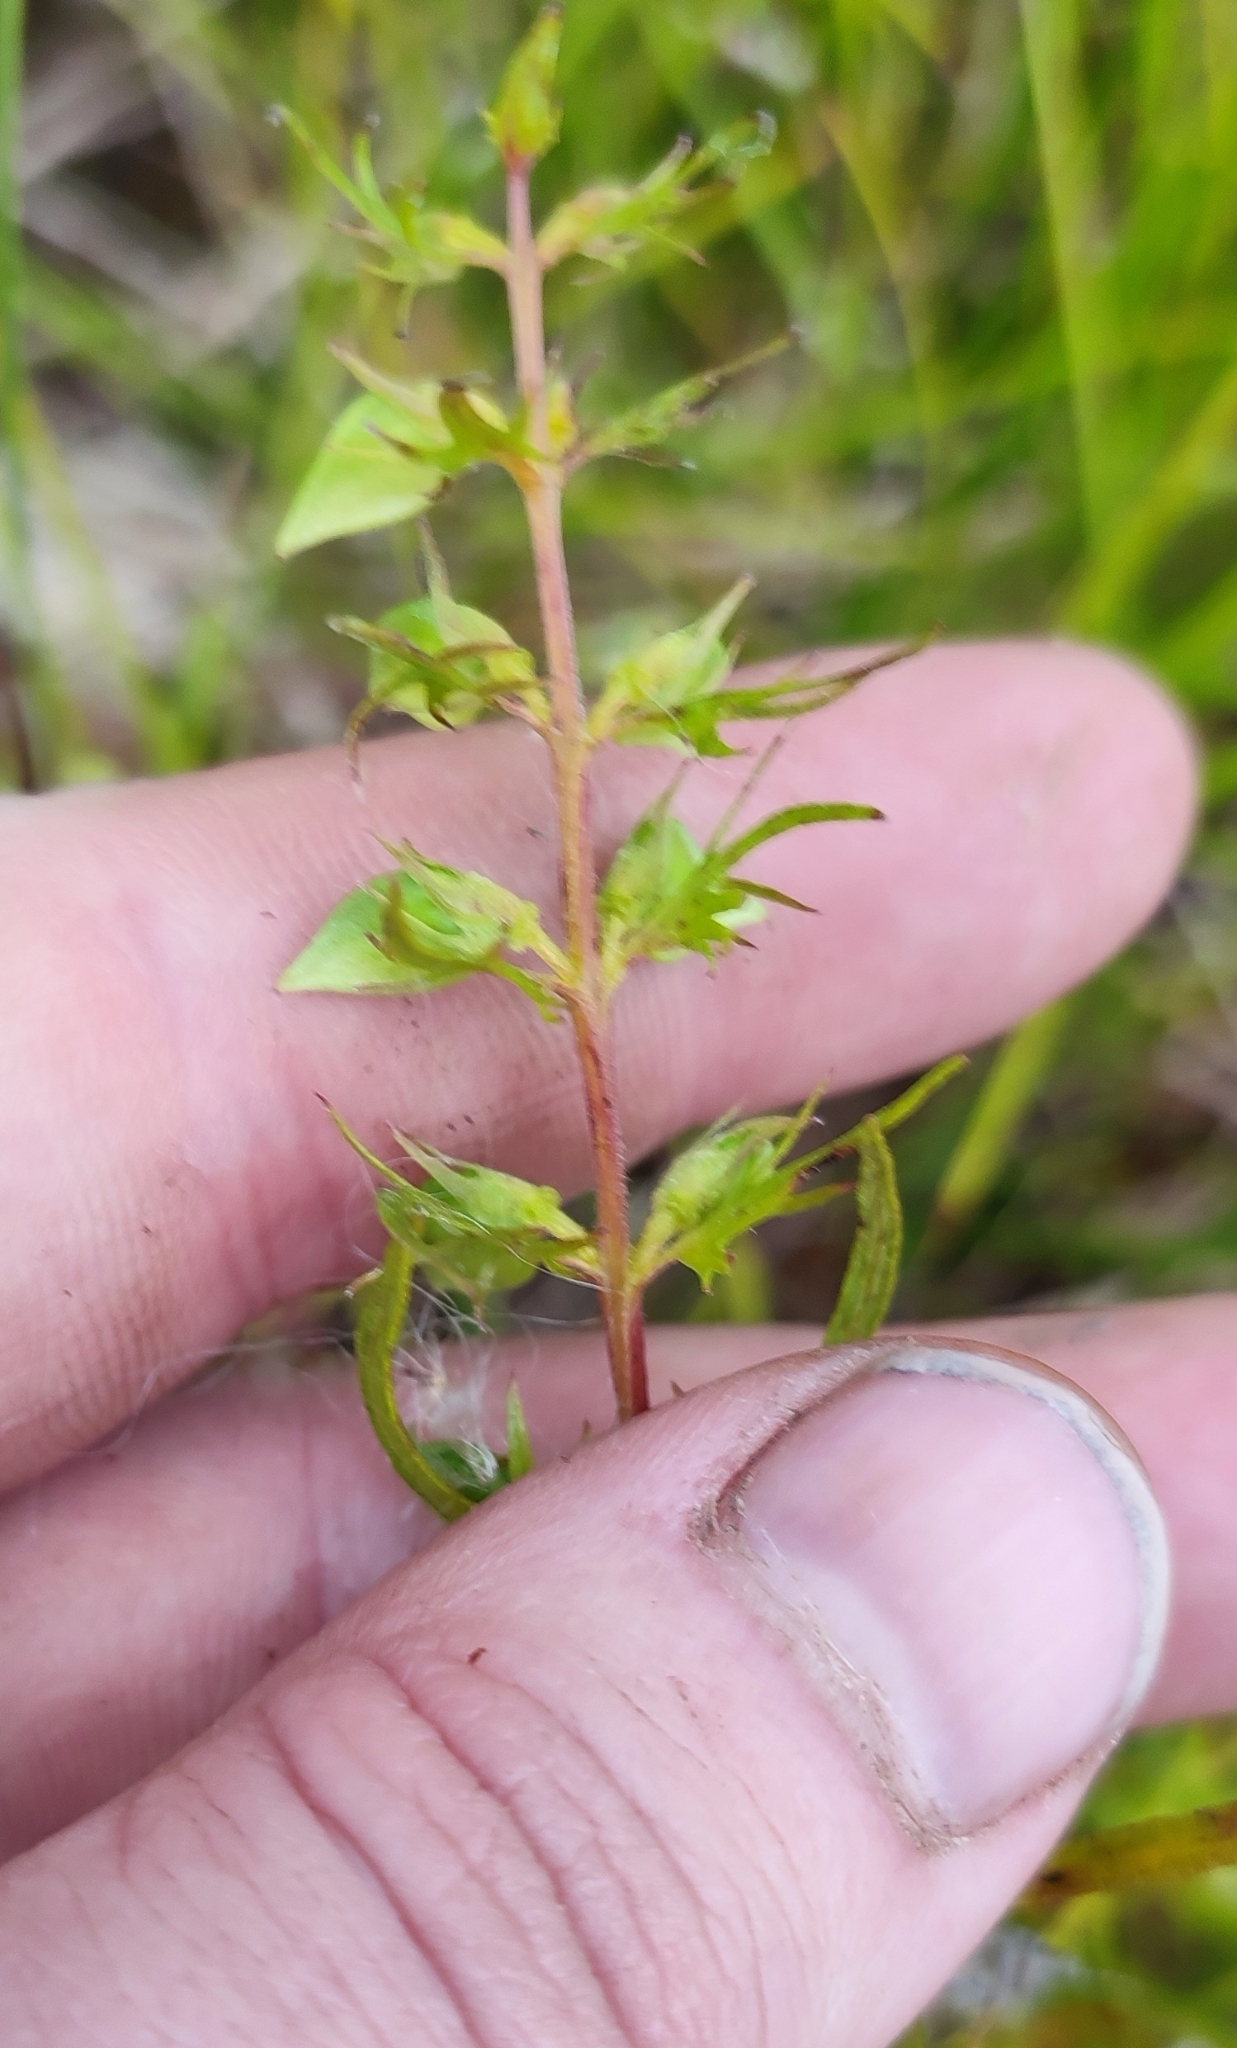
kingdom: Plantae
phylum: Tracheophyta
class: Magnoliopsida
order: Lamiales
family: Orobanchaceae
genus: Melampyrum
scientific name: Melampyrum pratense
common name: Common cow-wheat
